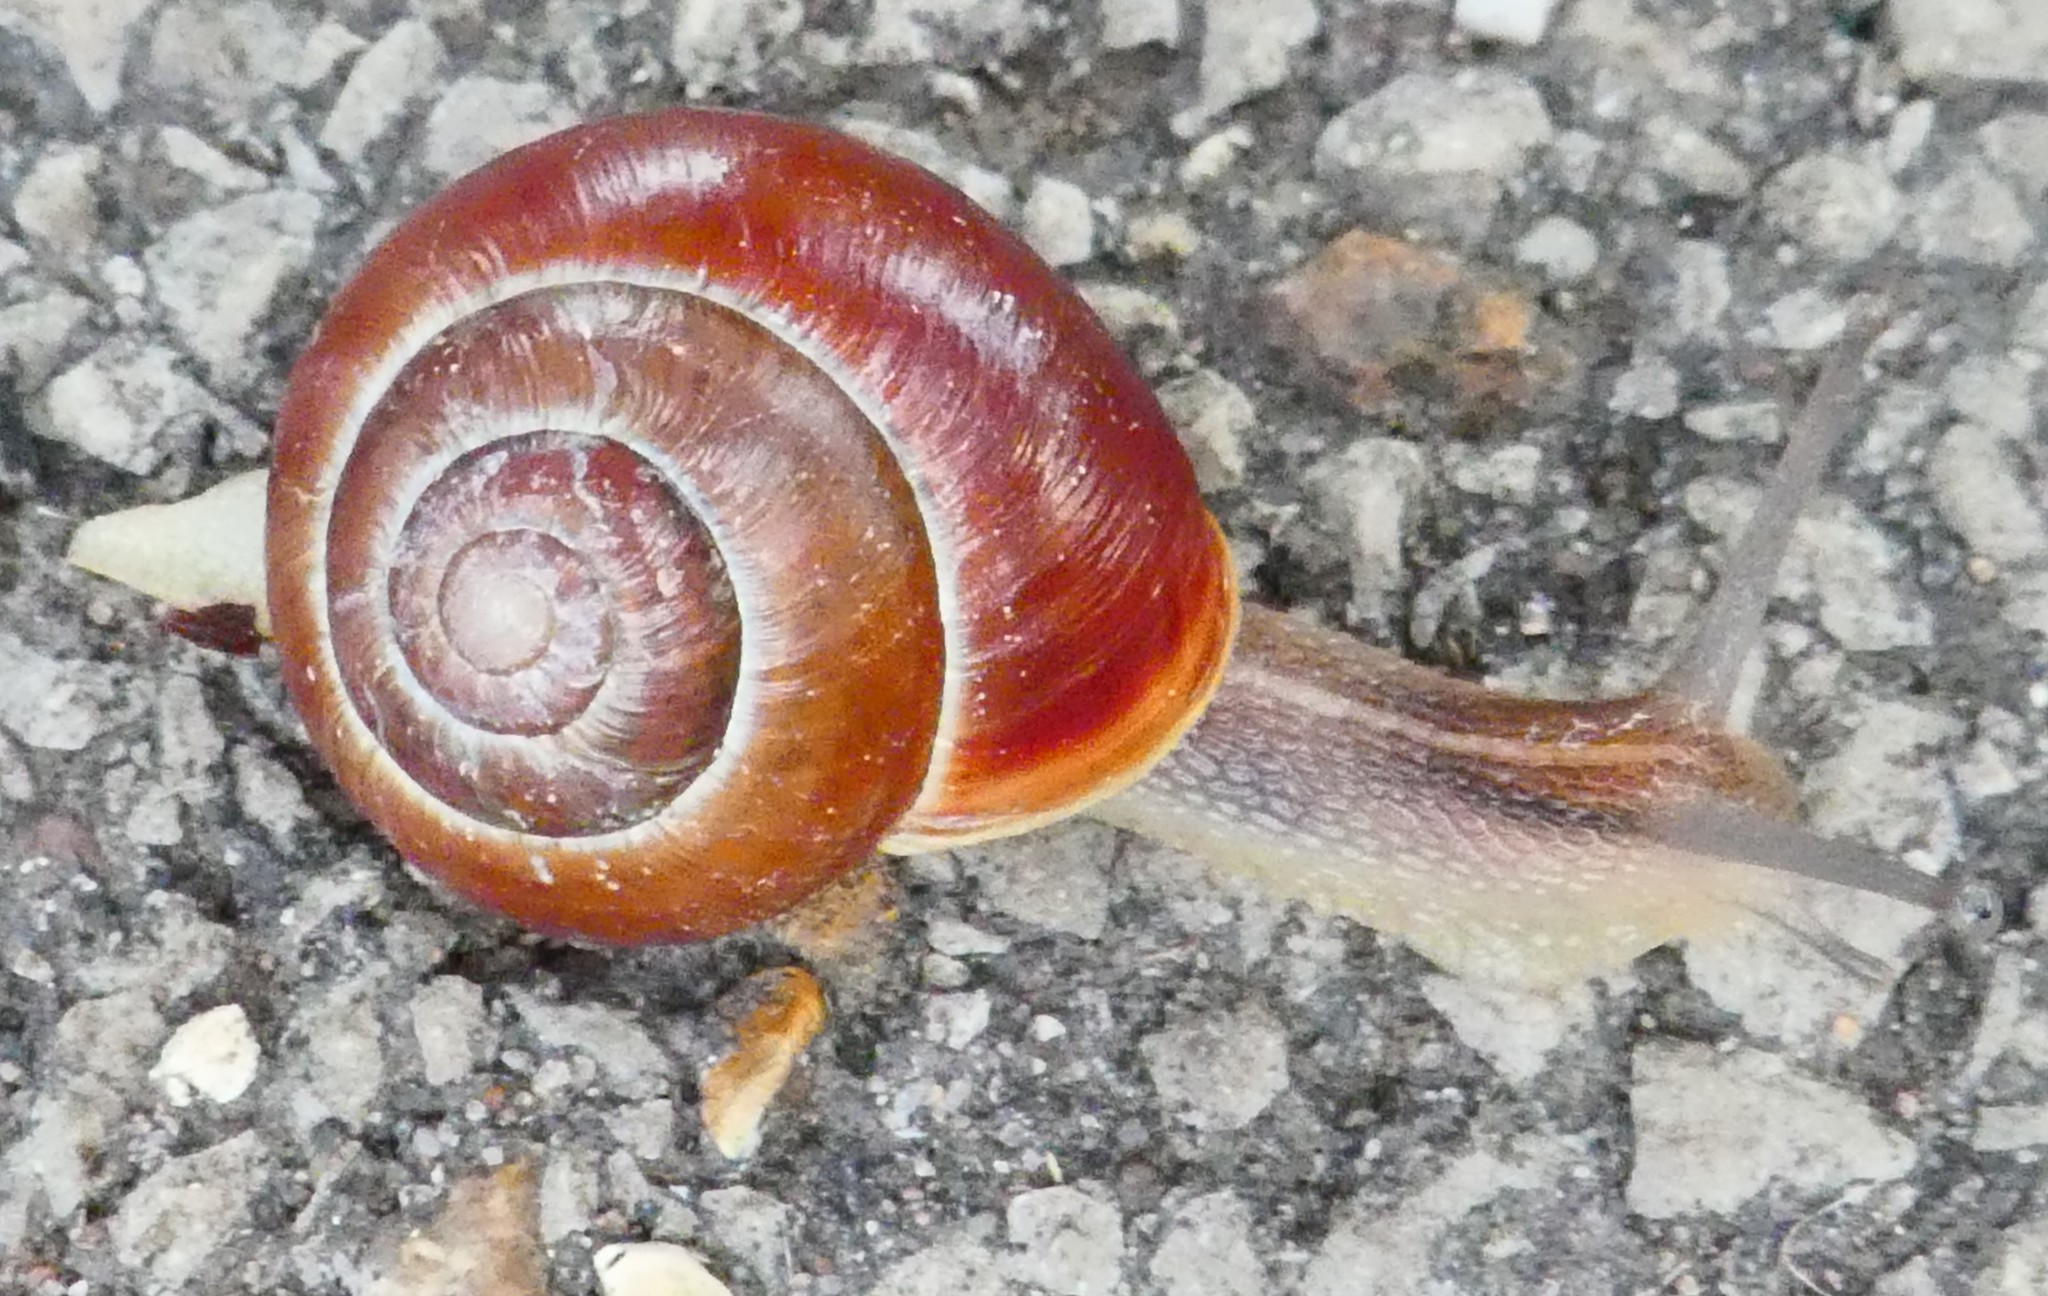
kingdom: Animalia
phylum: Mollusca
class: Gastropoda
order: Stylommatophora
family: Helicidae
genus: Cepaea
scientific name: Cepaea hortensis
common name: White-lip gardensnail
